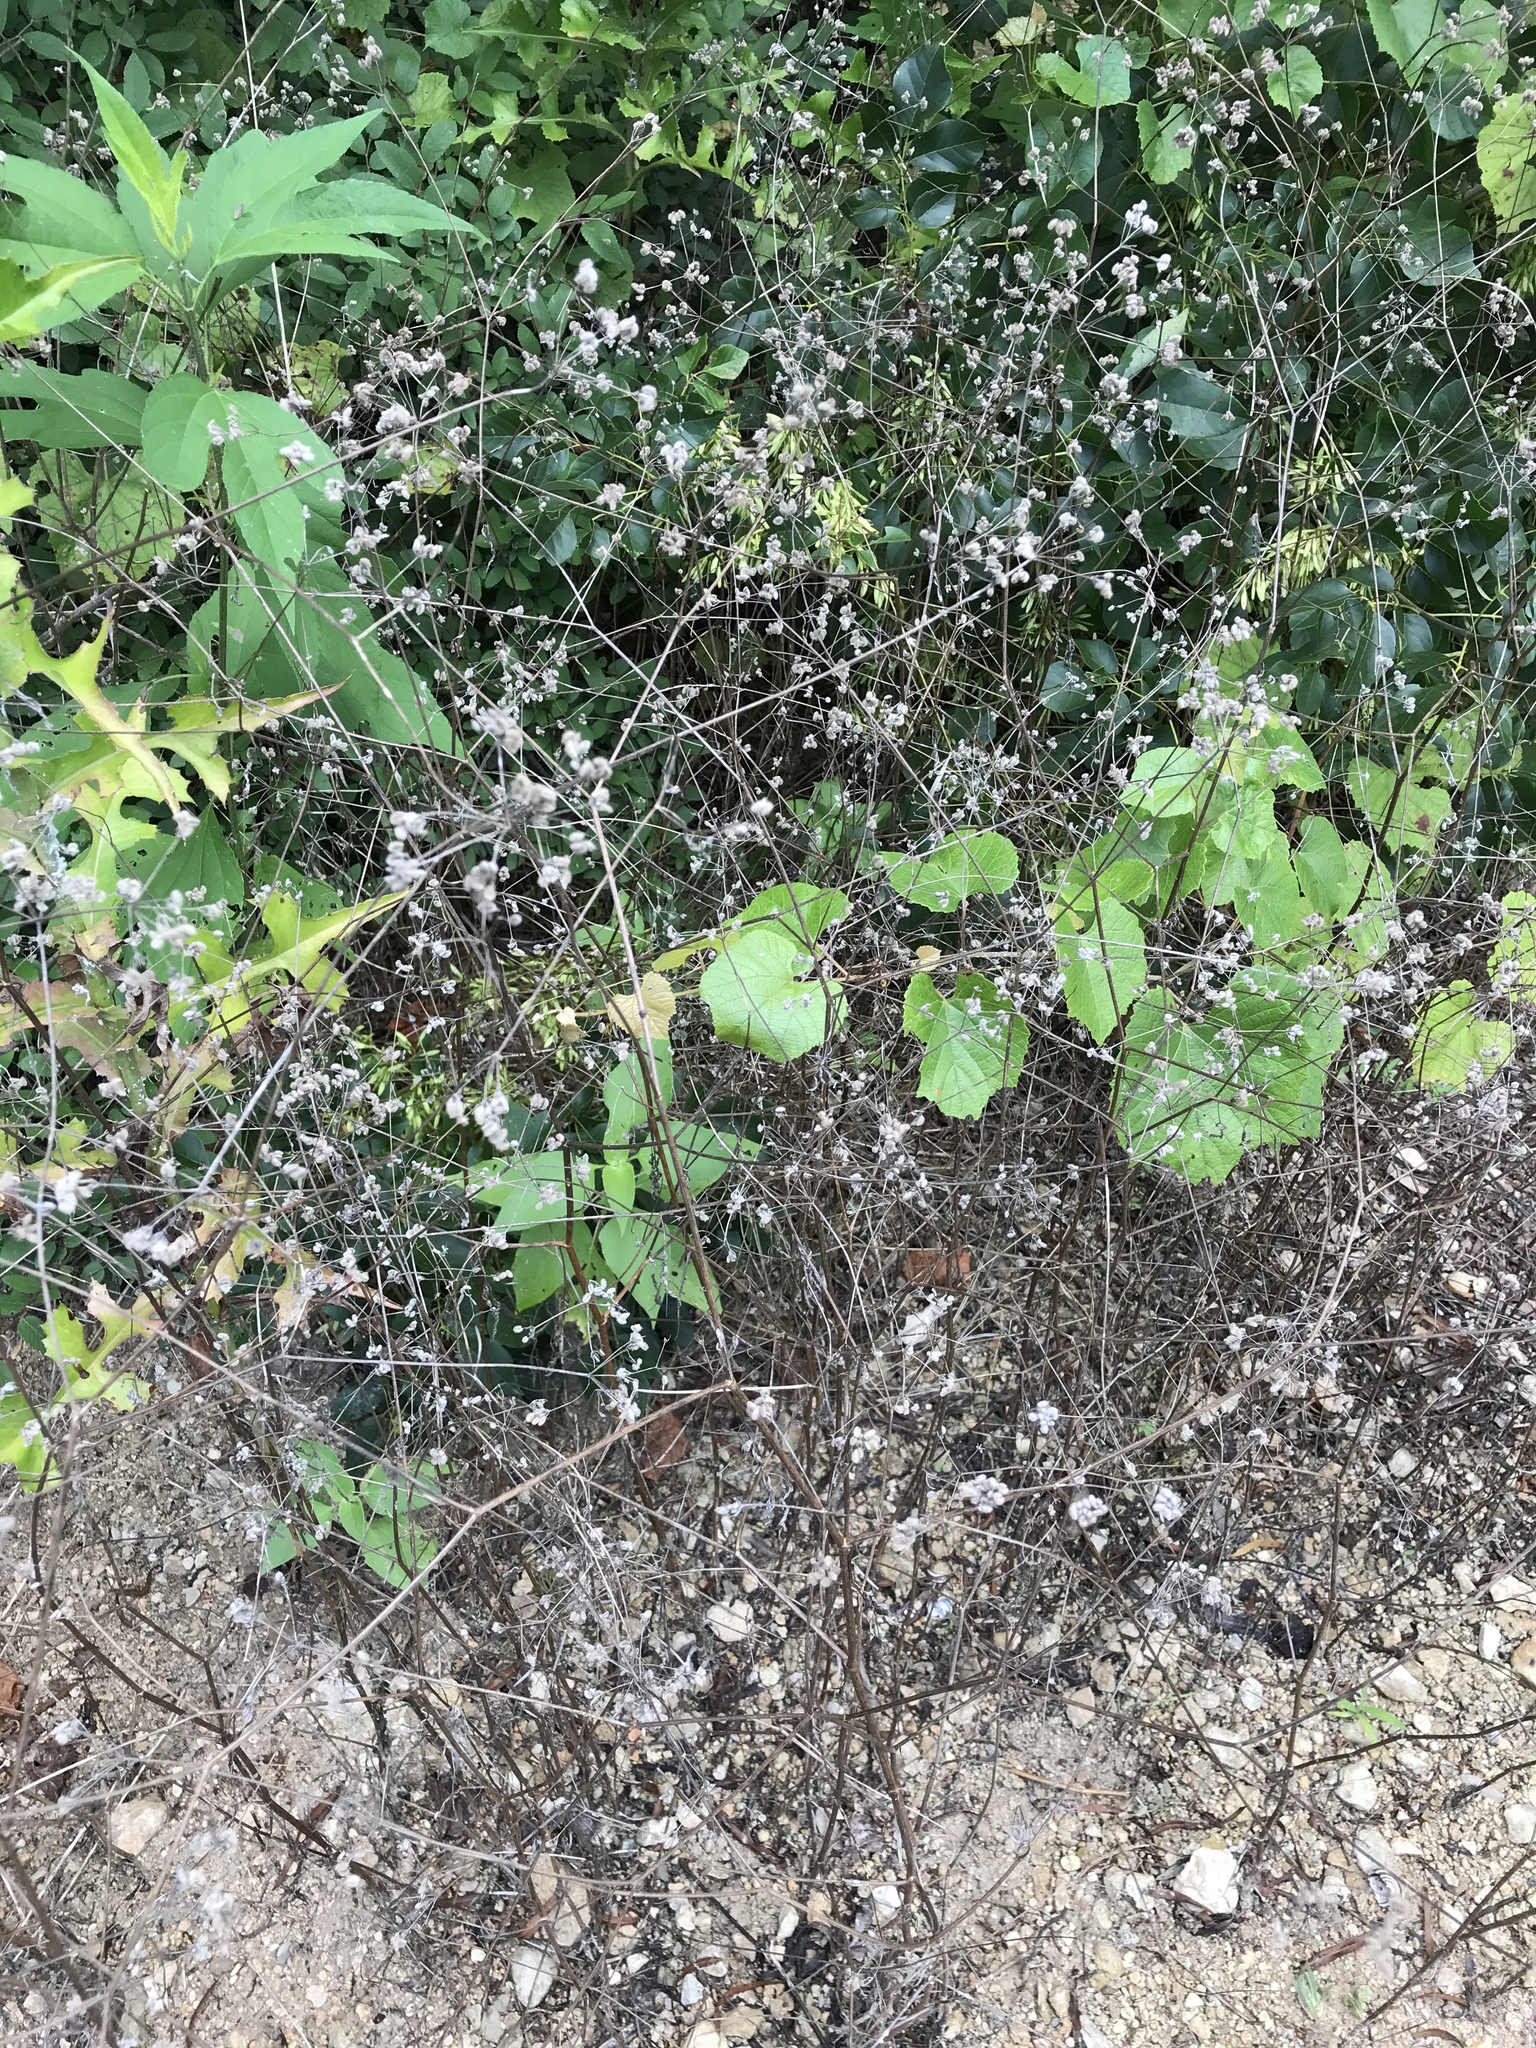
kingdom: Plantae
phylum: Tracheophyta
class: Magnoliopsida
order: Apiales
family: Apiaceae
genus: Torilis
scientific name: Torilis arvensis
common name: Spreading hedge-parsley
